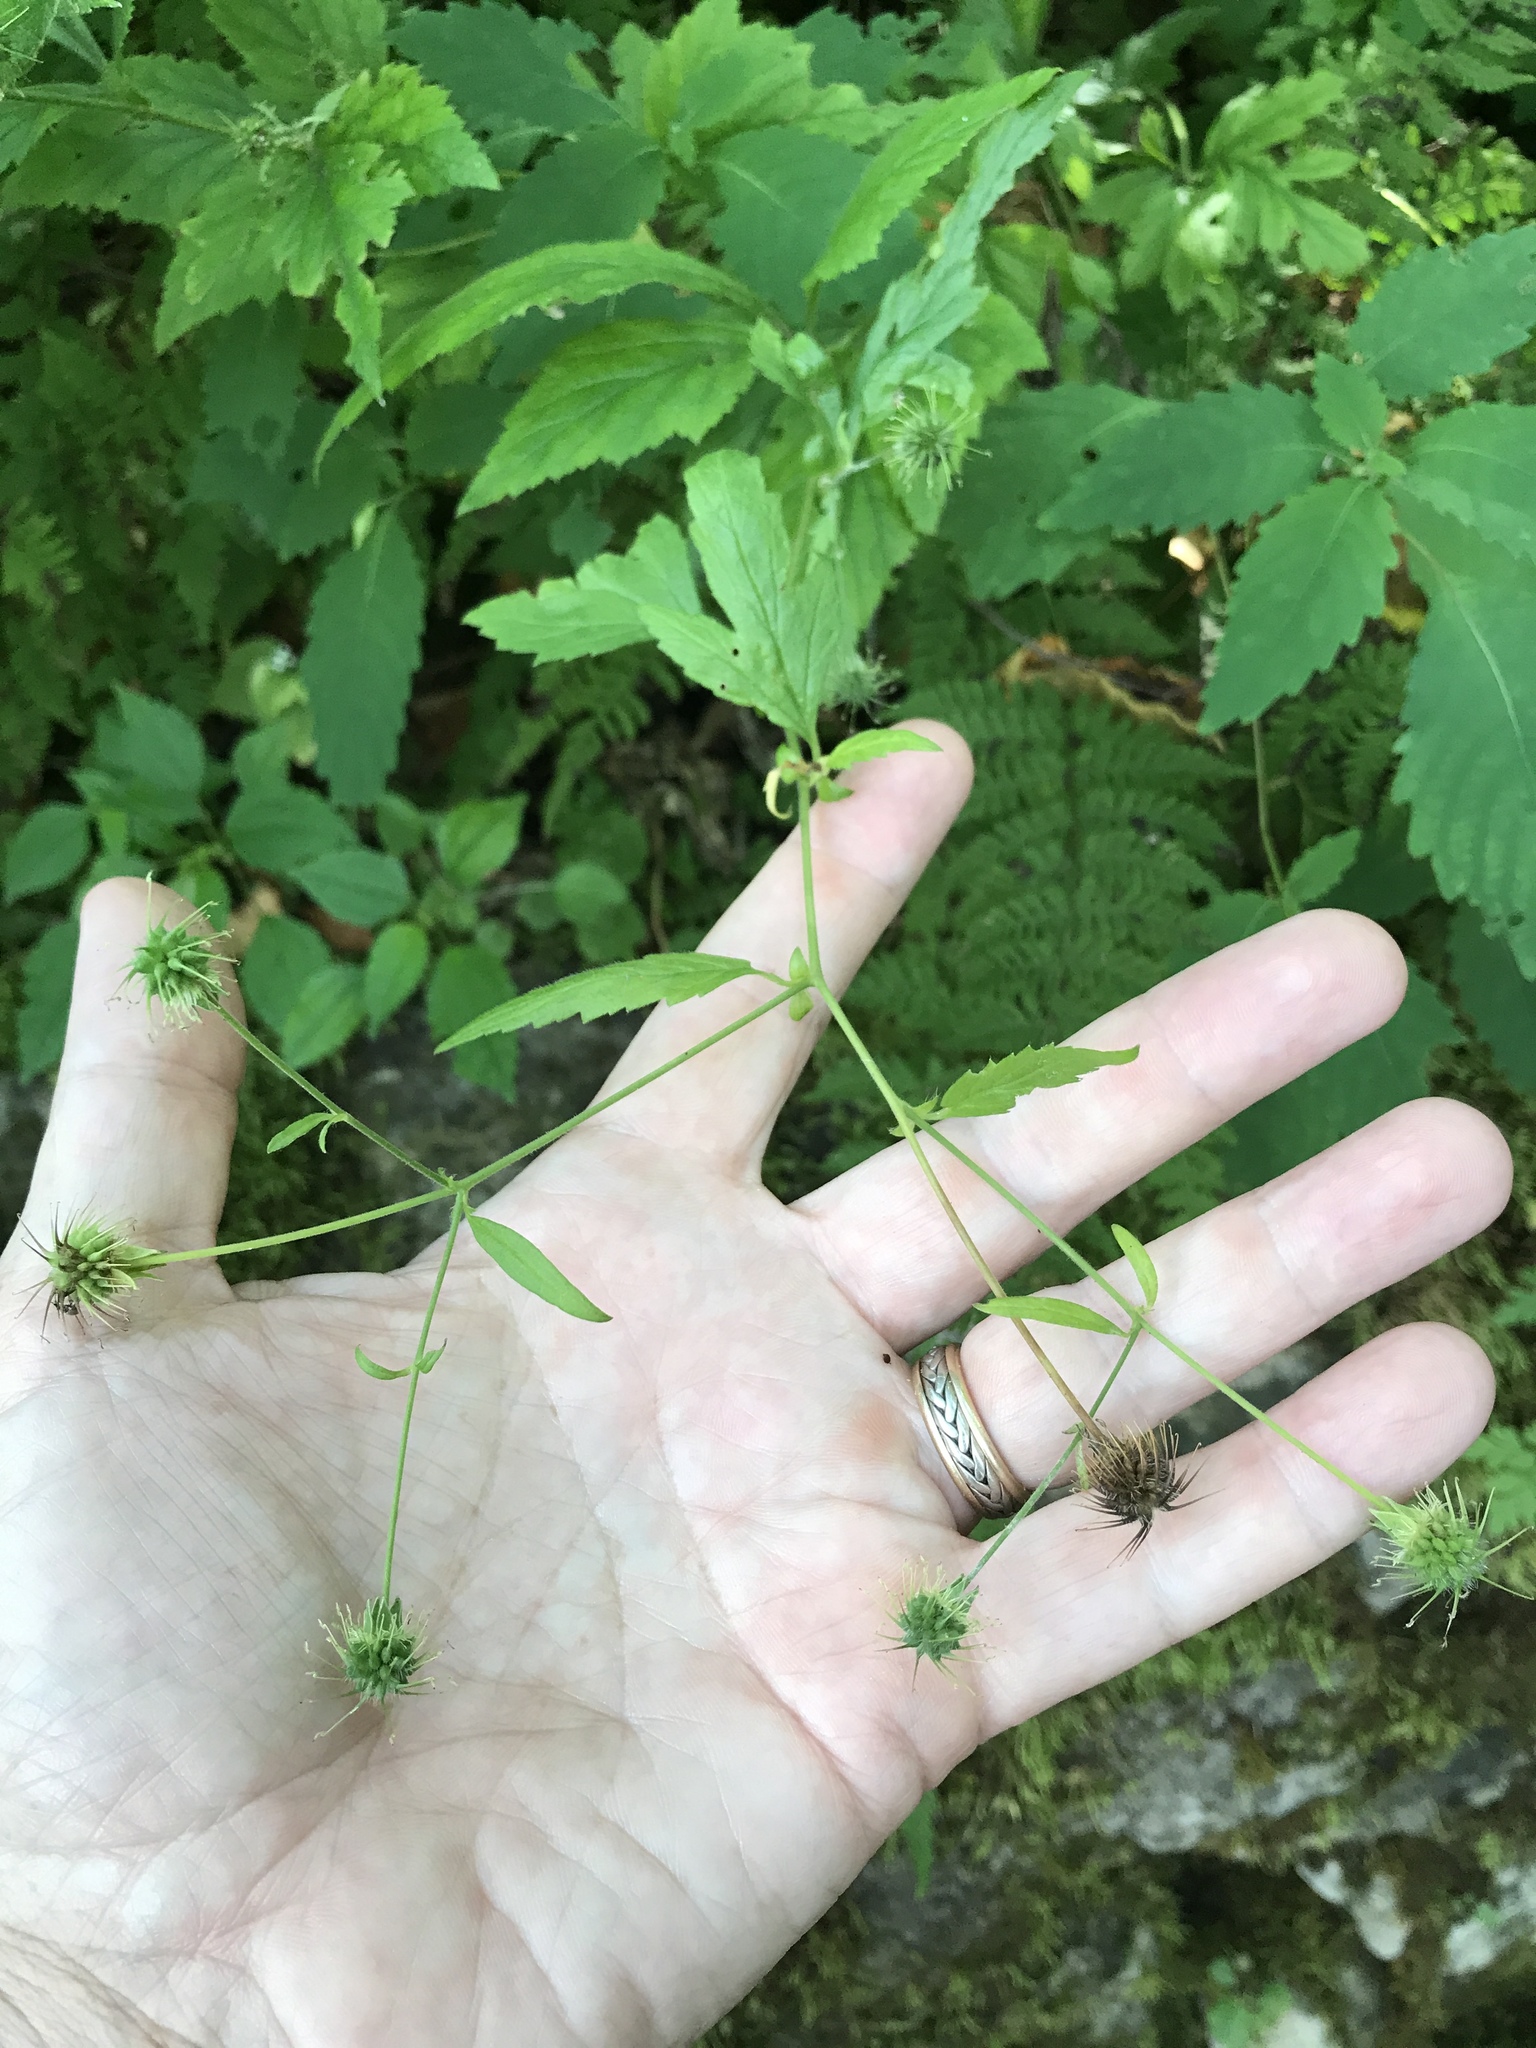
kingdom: Plantae
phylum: Tracheophyta
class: Magnoliopsida
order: Rosales
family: Rosaceae
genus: Geum
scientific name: Geum canadense
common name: White avens
